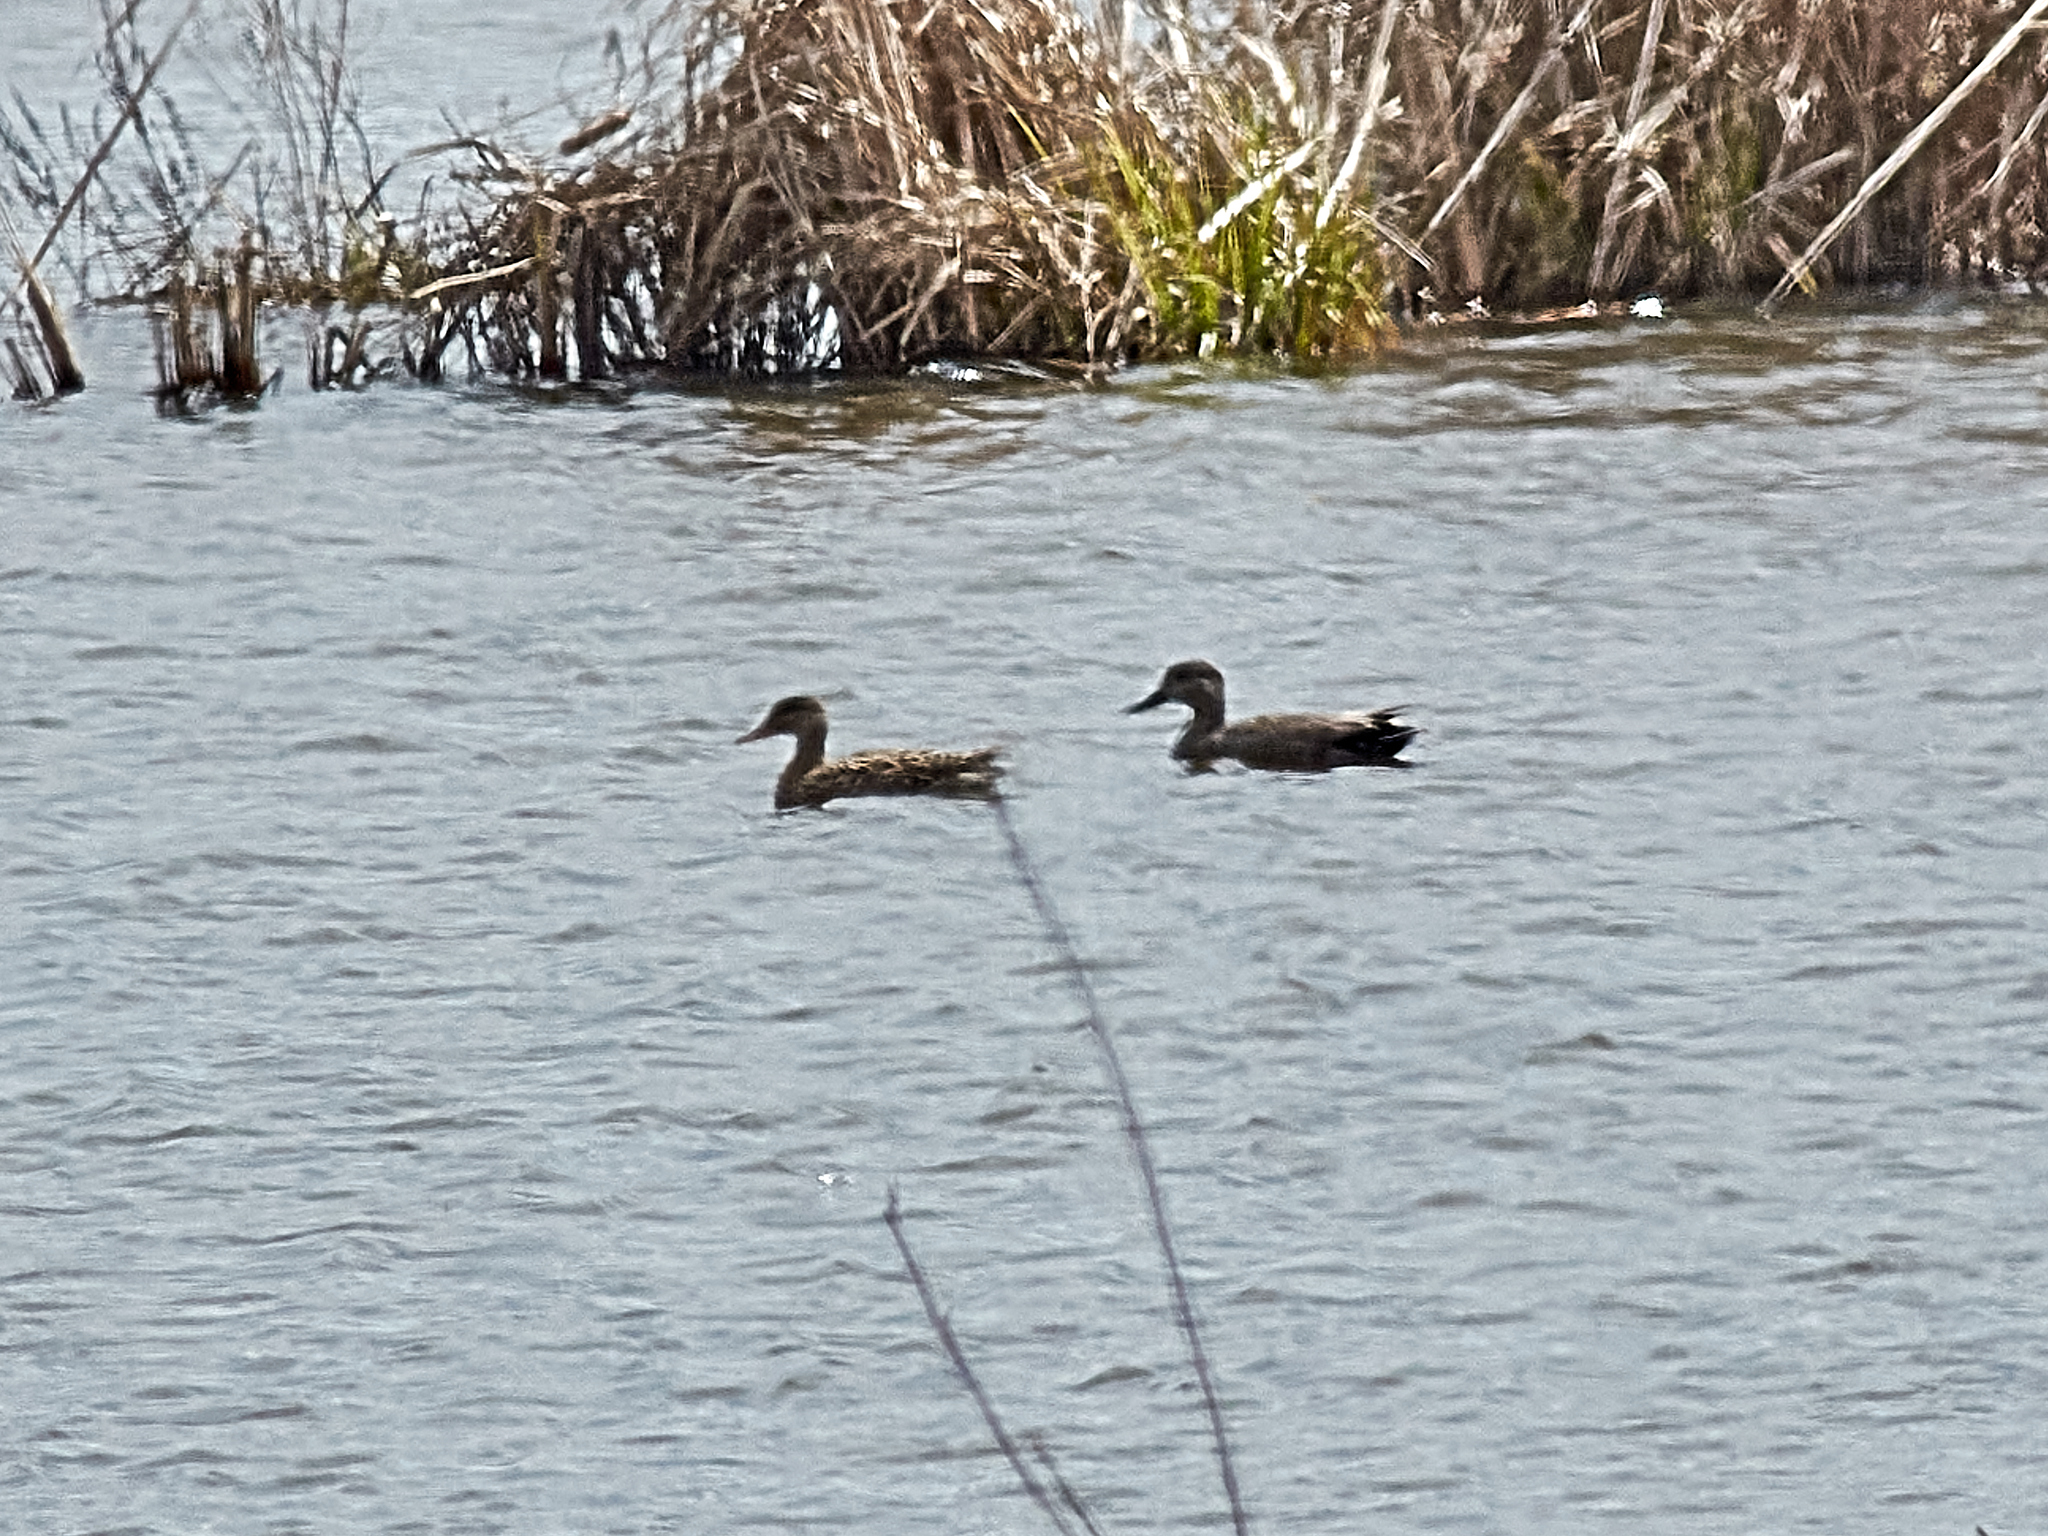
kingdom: Animalia
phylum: Chordata
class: Aves
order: Anseriformes
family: Anatidae
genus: Mareca
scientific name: Mareca strepera
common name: Gadwall
